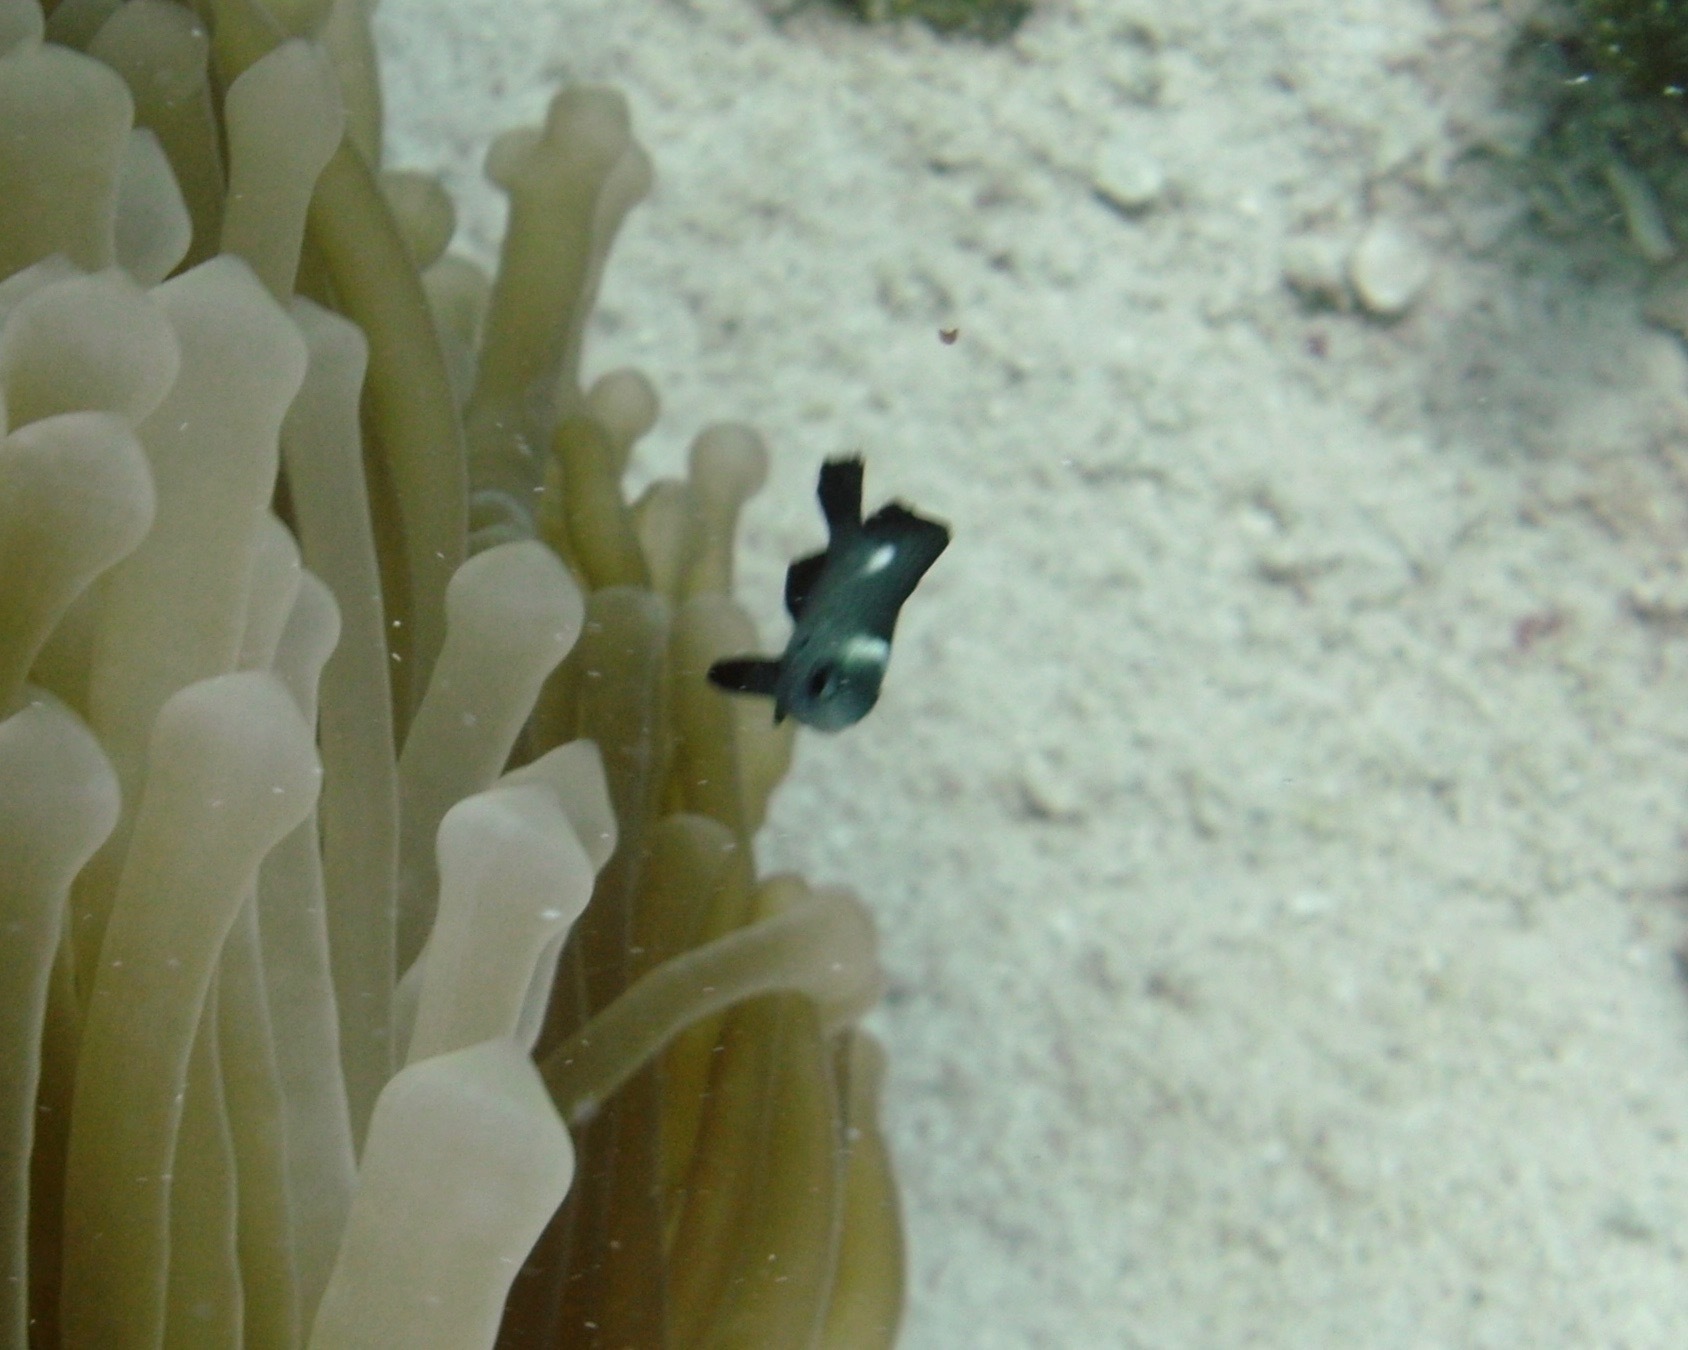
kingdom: Animalia
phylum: Chordata
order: Perciformes
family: Pomacentridae
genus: Dascyllus
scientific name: Dascyllus trimaculatus
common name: Threespot dascyllus
